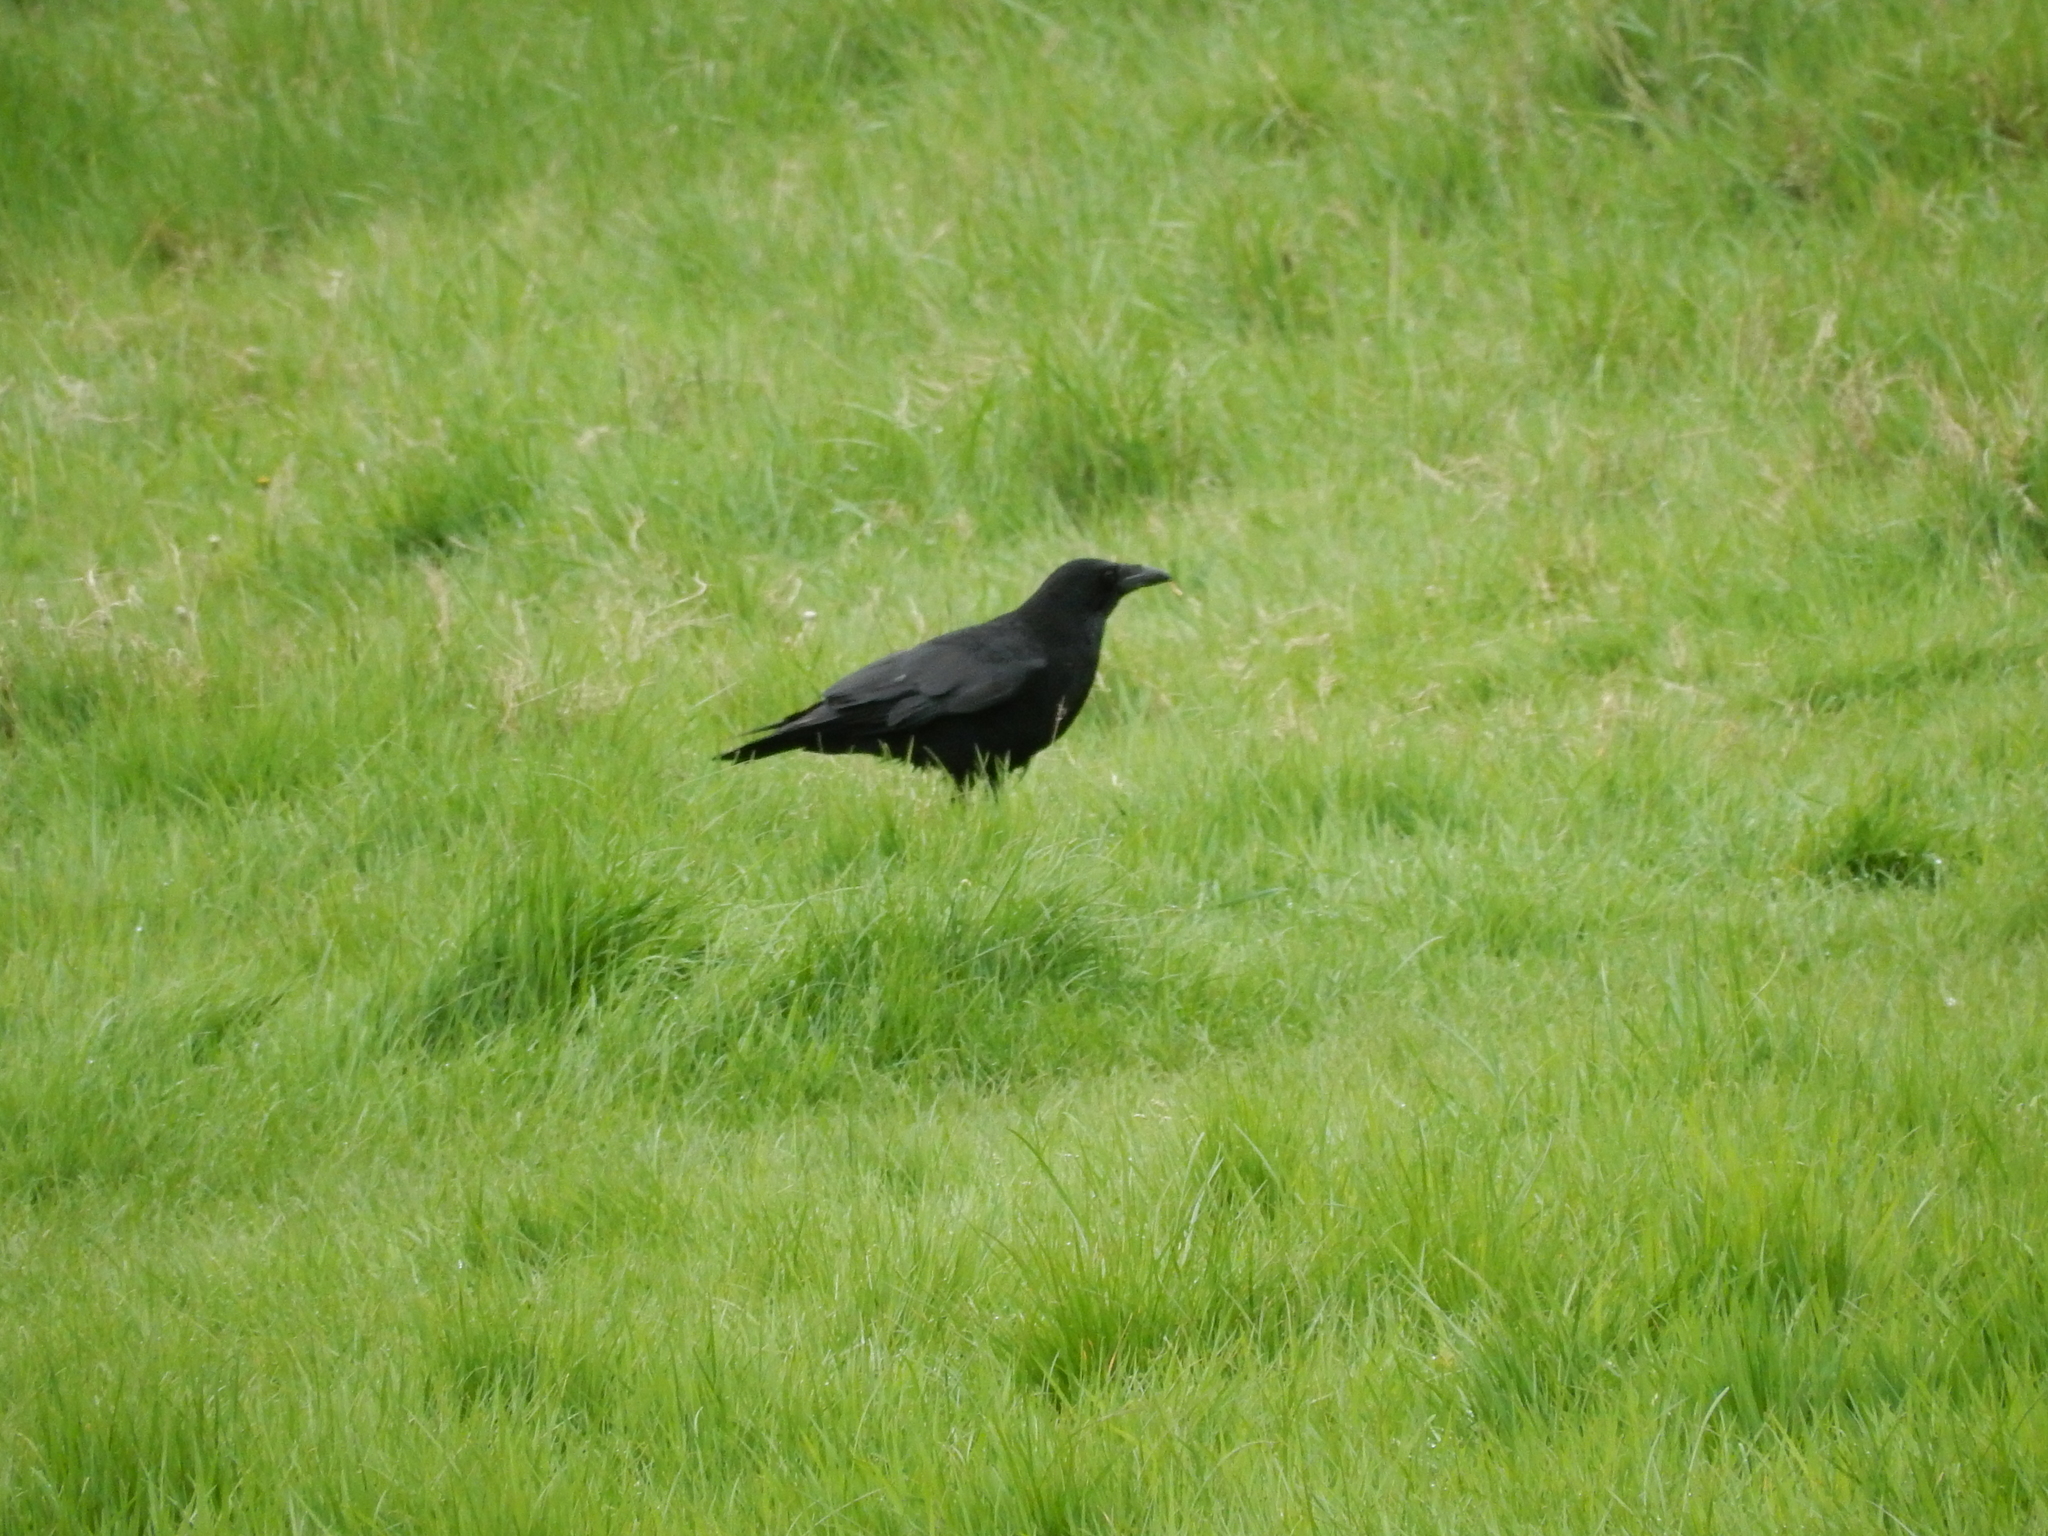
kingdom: Animalia
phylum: Chordata
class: Aves
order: Passeriformes
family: Corvidae
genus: Corvus
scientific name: Corvus corone
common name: Carrion crow
